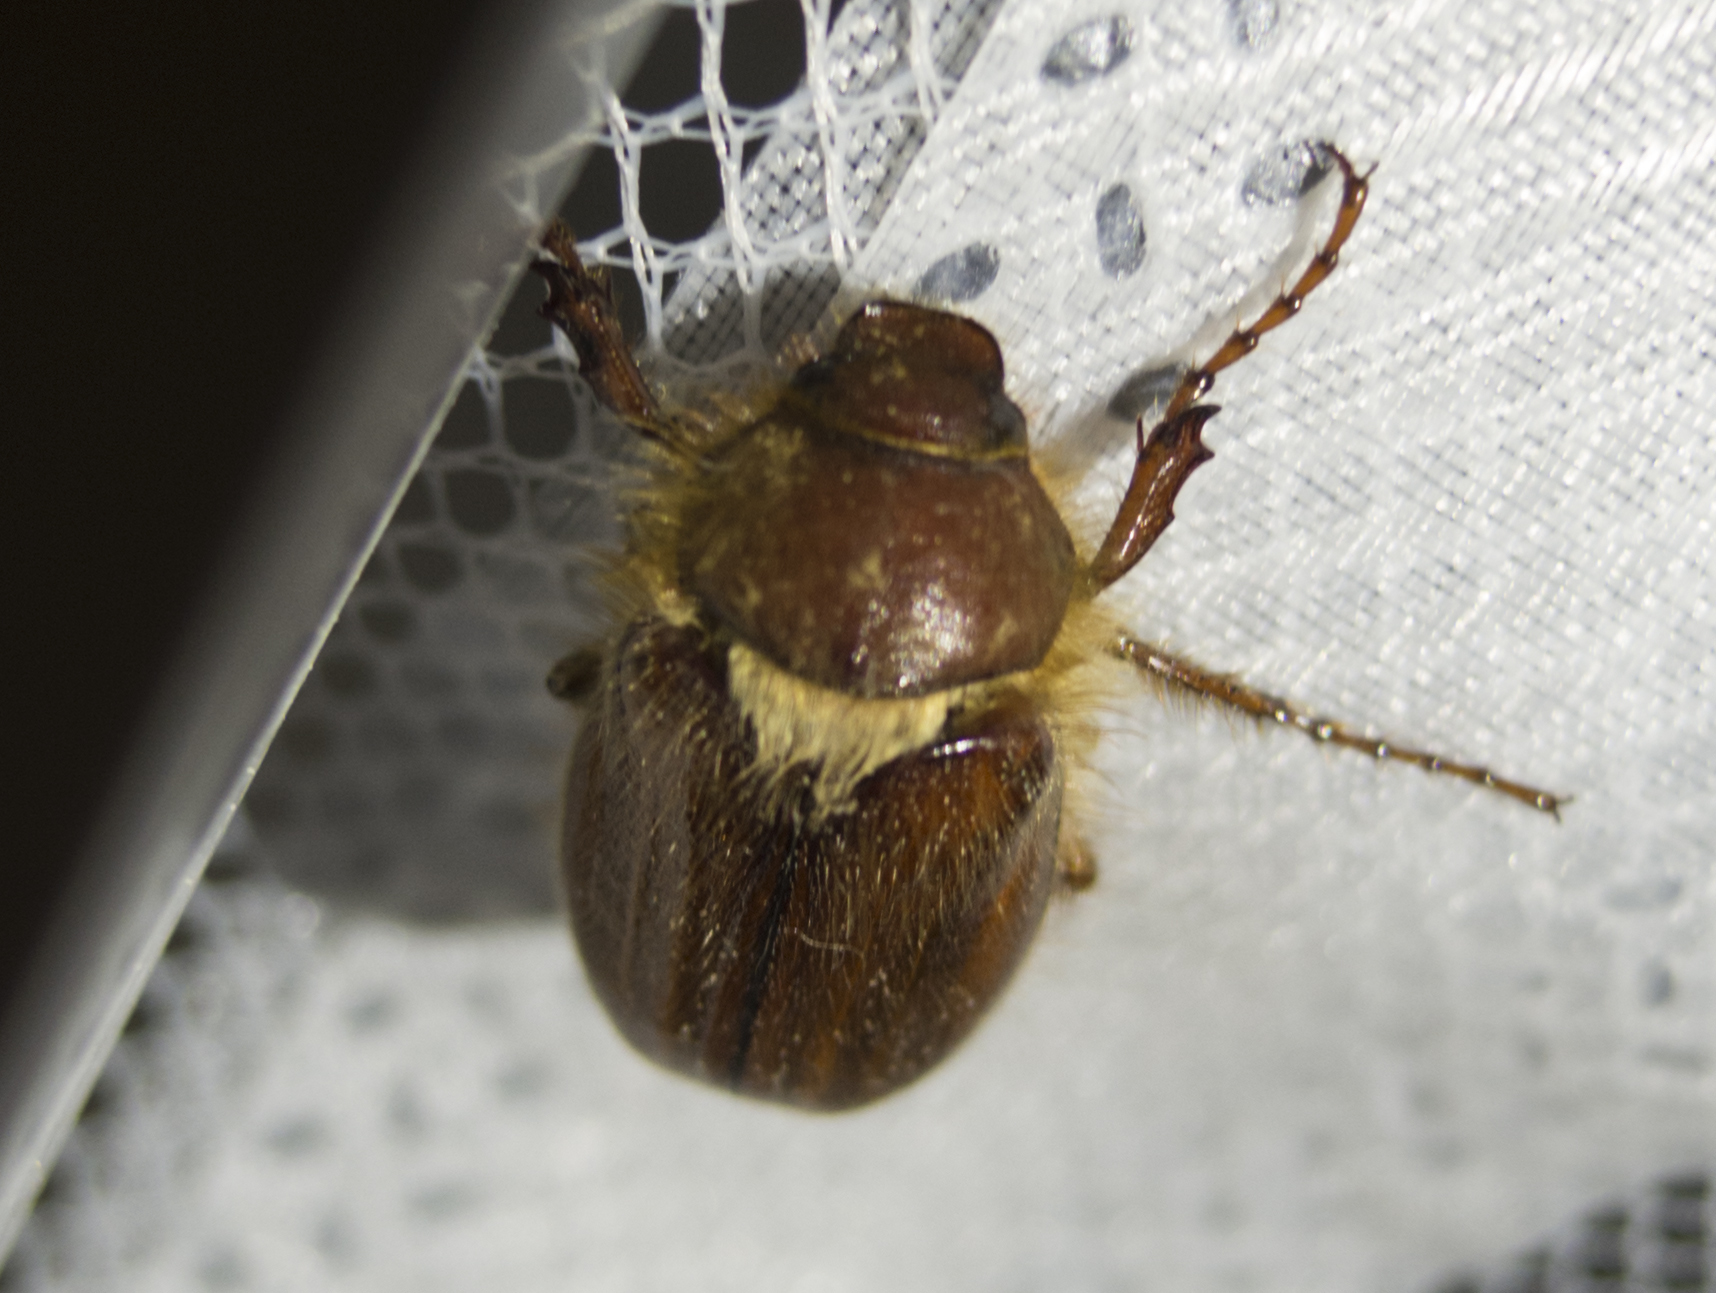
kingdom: Animalia
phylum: Arthropoda
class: Insecta
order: Coleoptera
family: Scarabaeidae
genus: Holochelus
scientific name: Holochelus aequinoctialis
